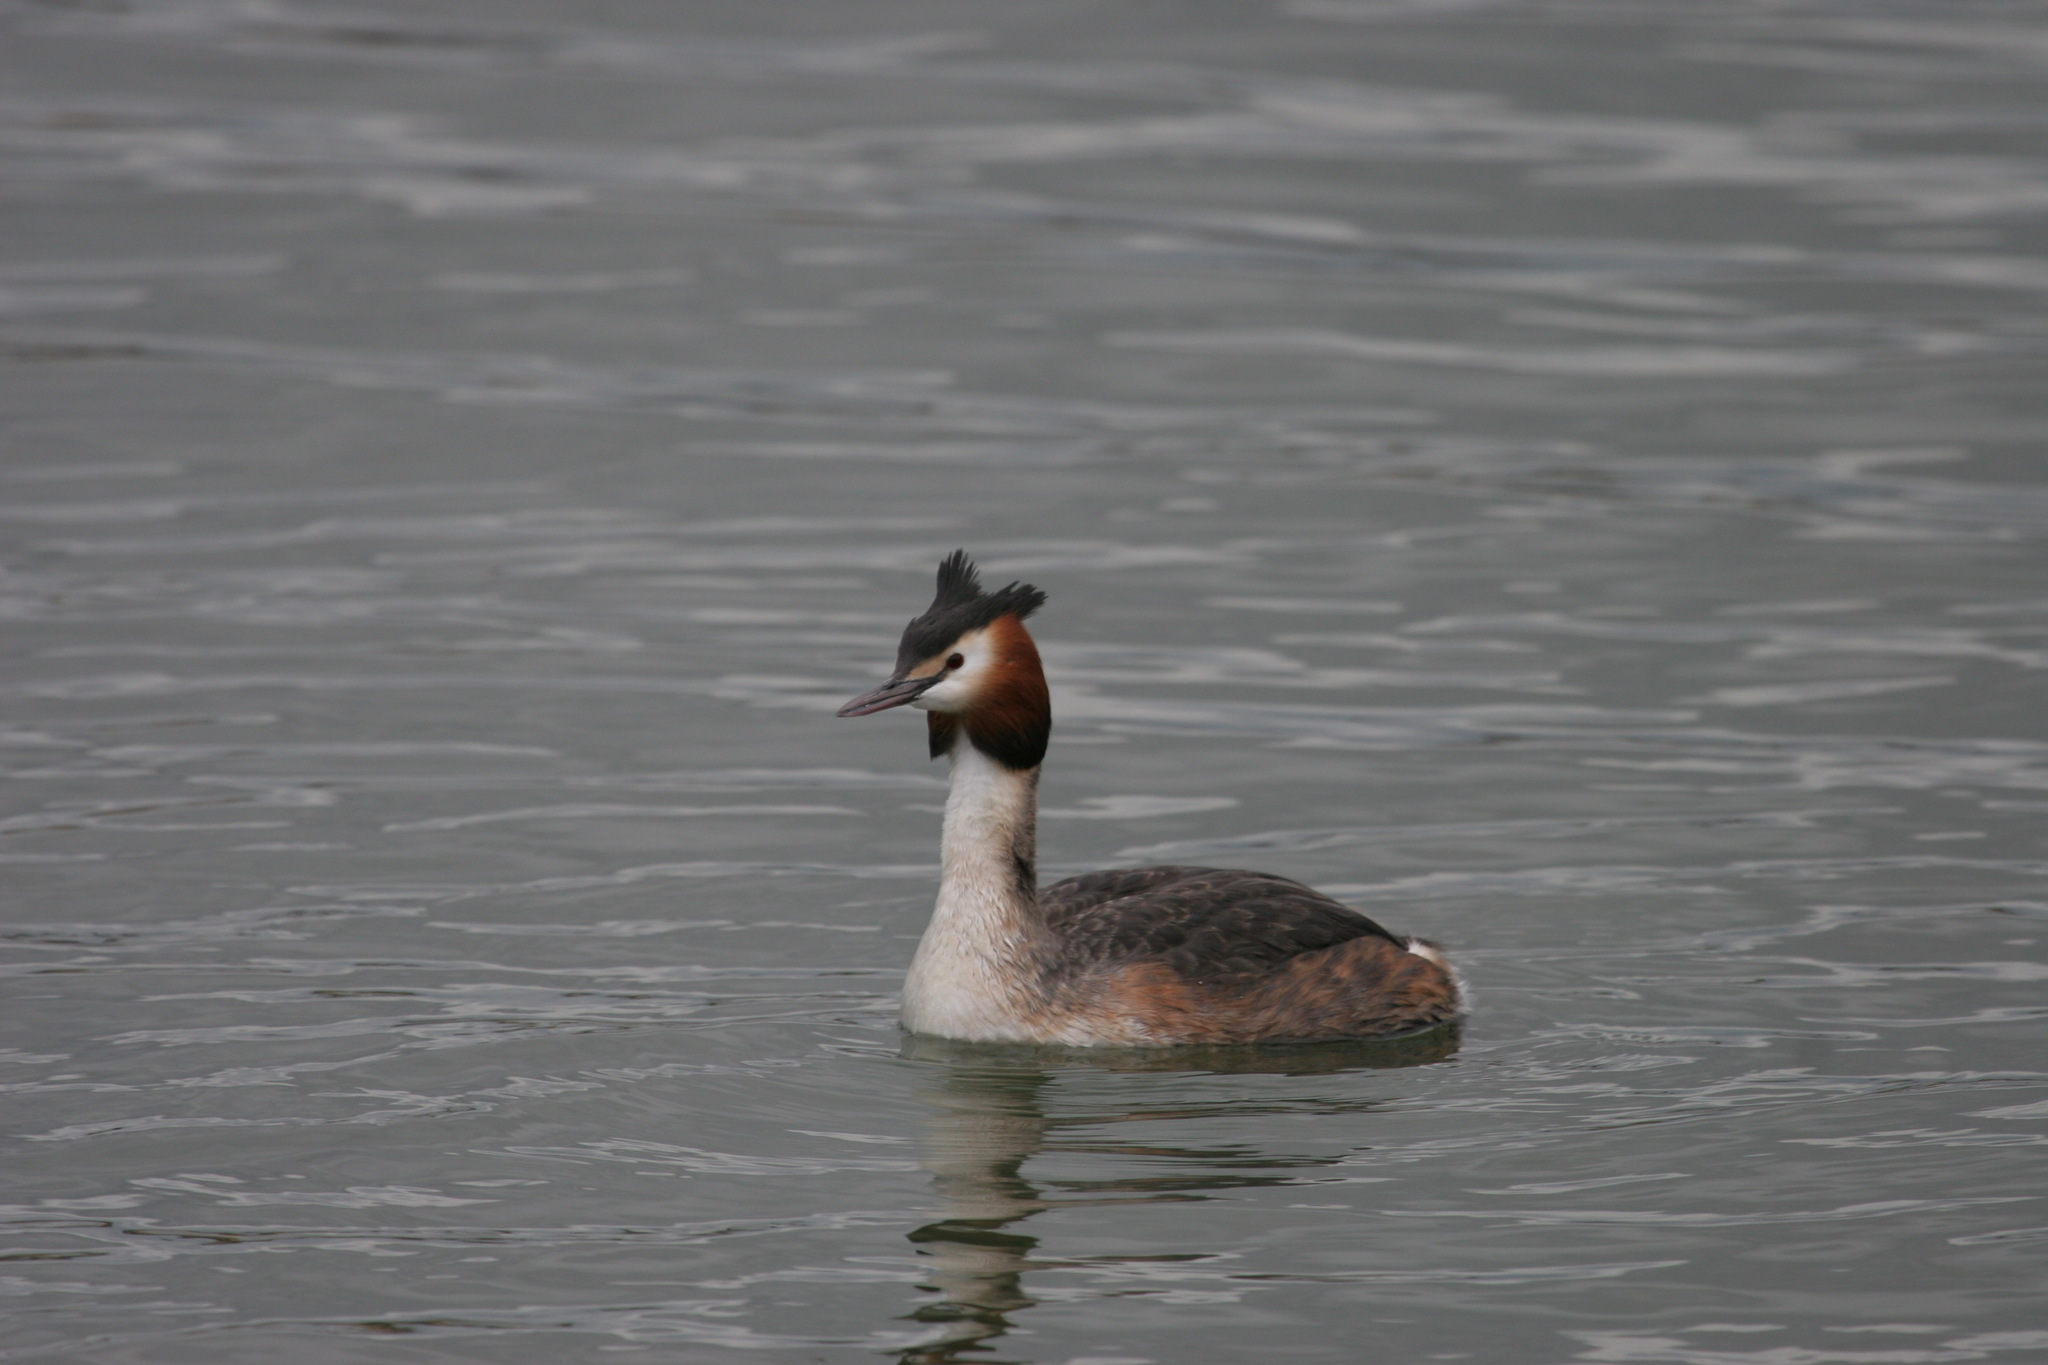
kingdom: Animalia
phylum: Chordata
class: Aves
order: Podicipediformes
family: Podicipedidae
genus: Podiceps
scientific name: Podiceps cristatus
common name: Great crested grebe
